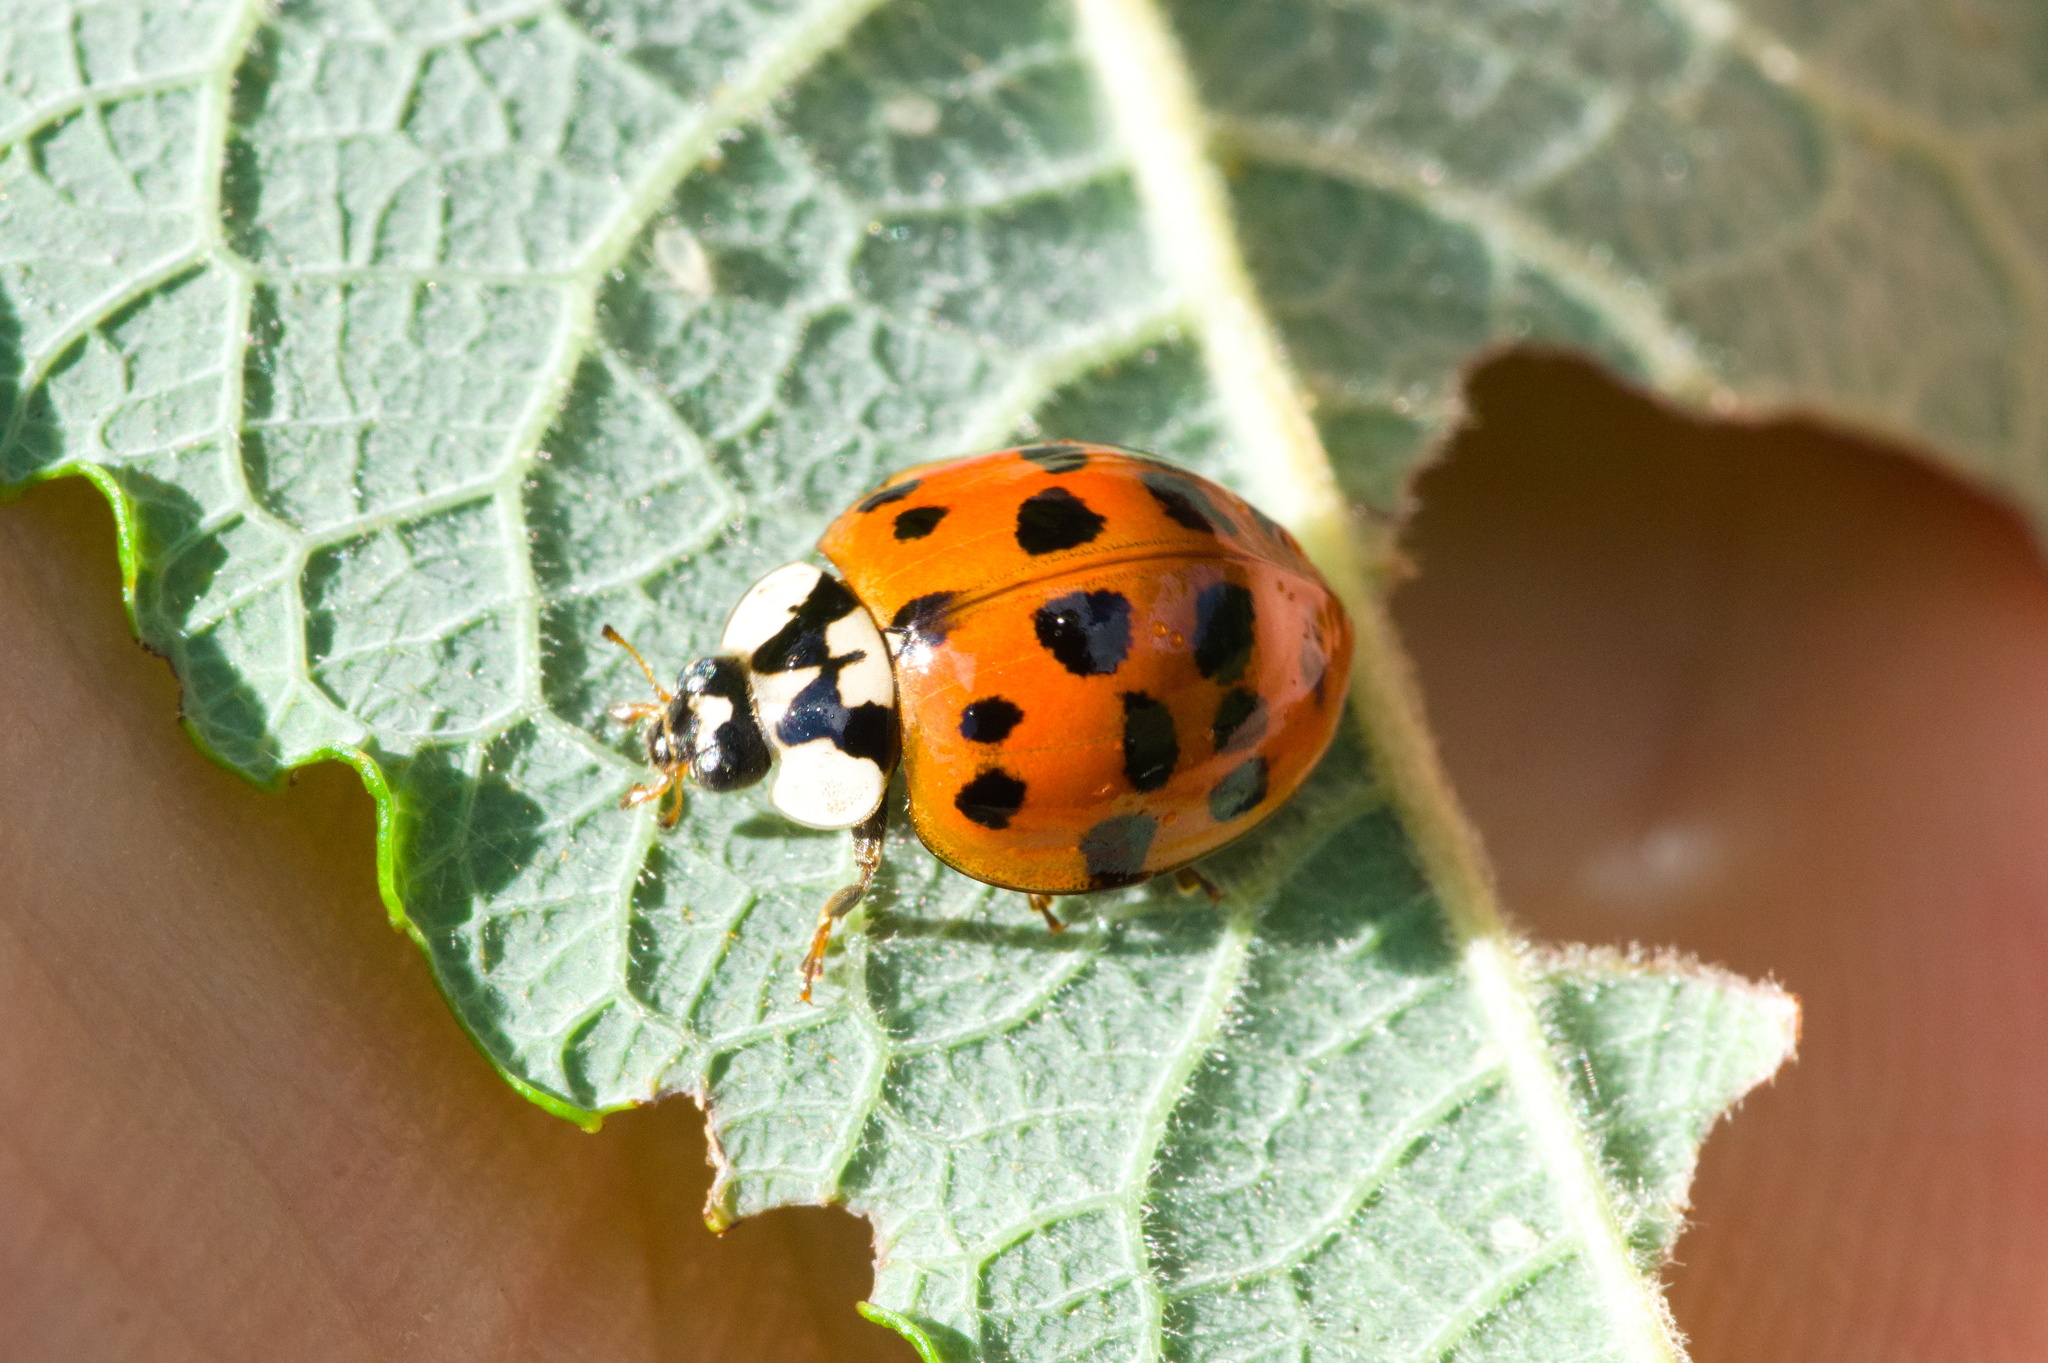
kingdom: Animalia
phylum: Arthropoda
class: Insecta
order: Coleoptera
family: Coccinellidae
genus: Harmonia
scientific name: Harmonia axyridis
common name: Harlequin ladybird
